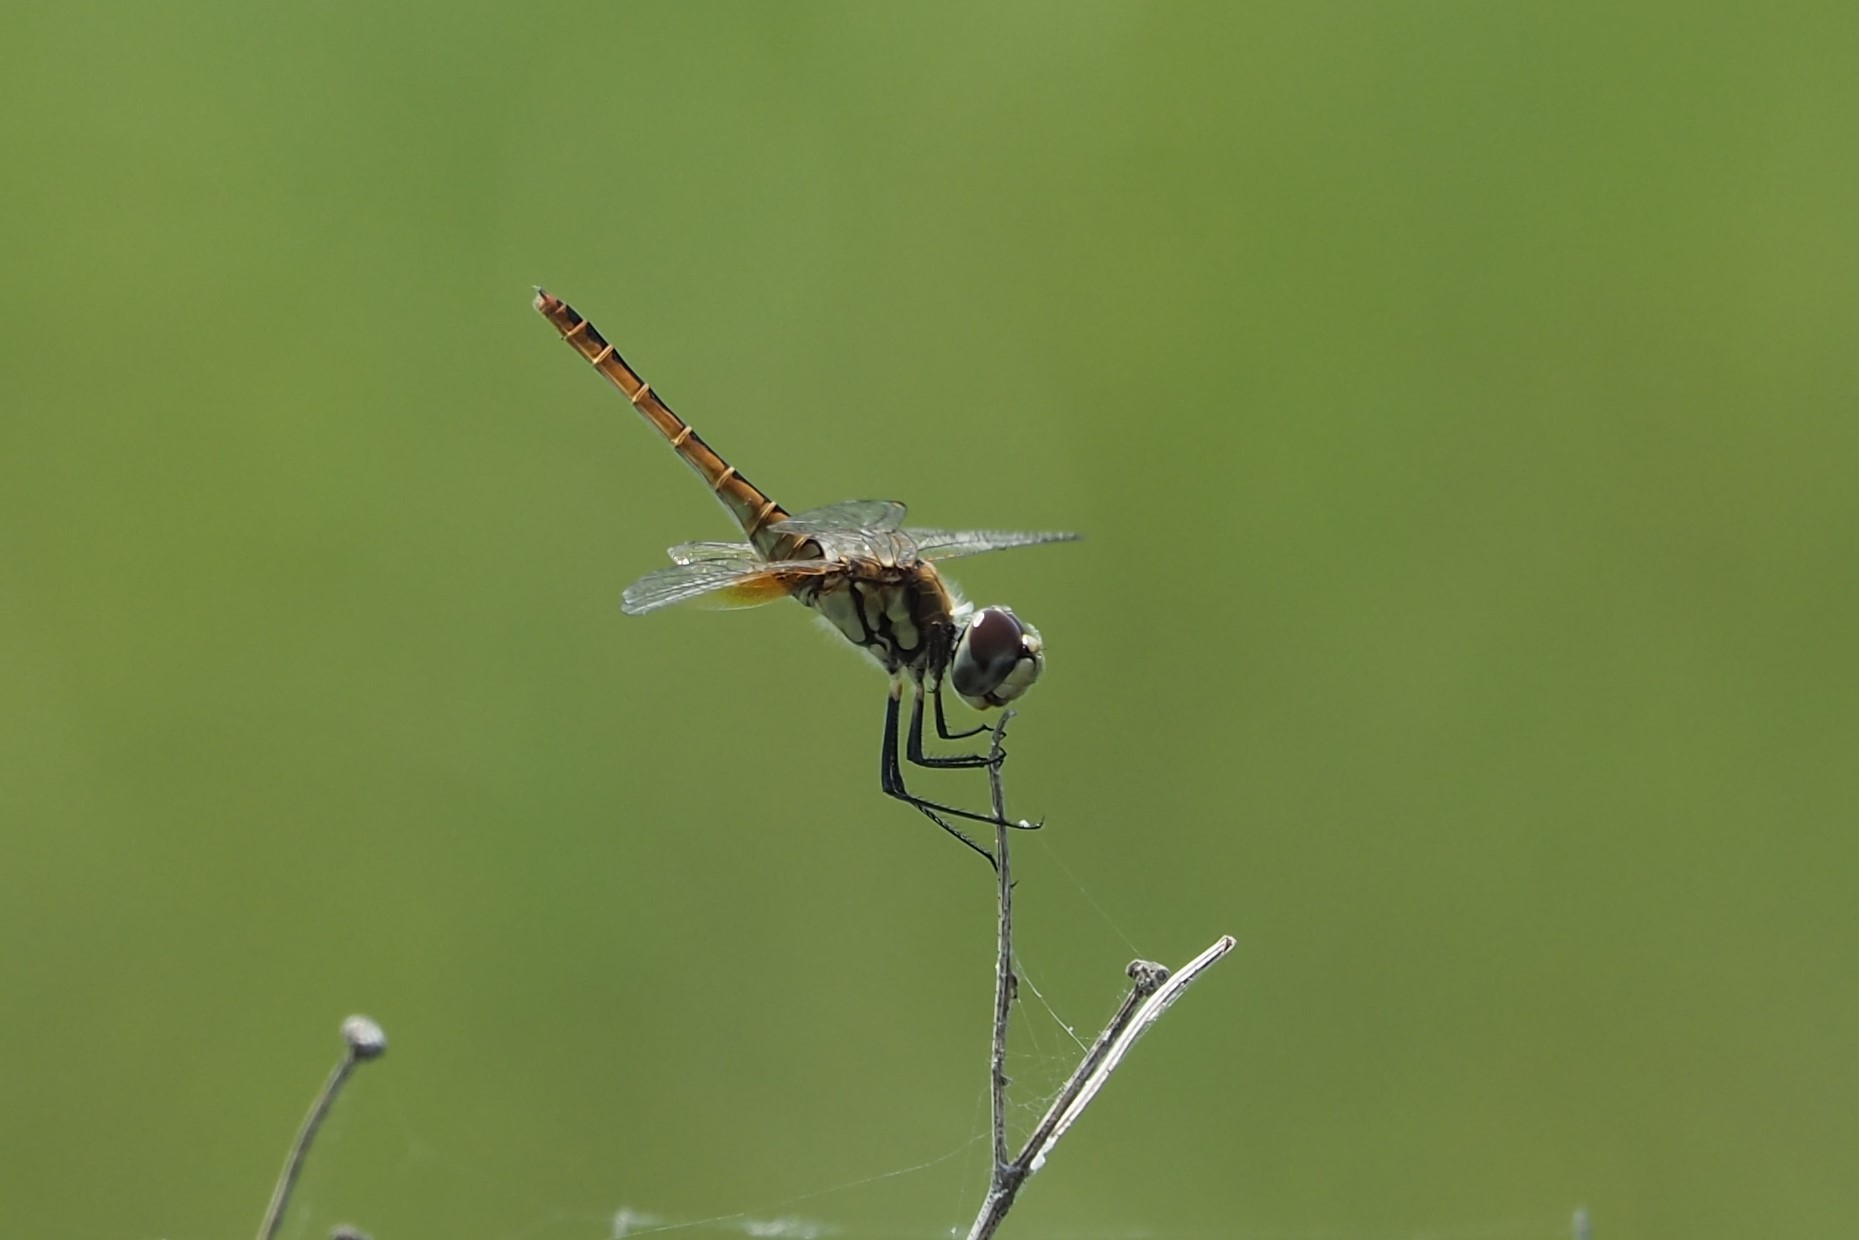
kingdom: Animalia
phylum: Arthropoda
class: Insecta
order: Odonata
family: Libellulidae
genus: Macrodiplax
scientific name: Macrodiplax cora
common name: Coastal glider
